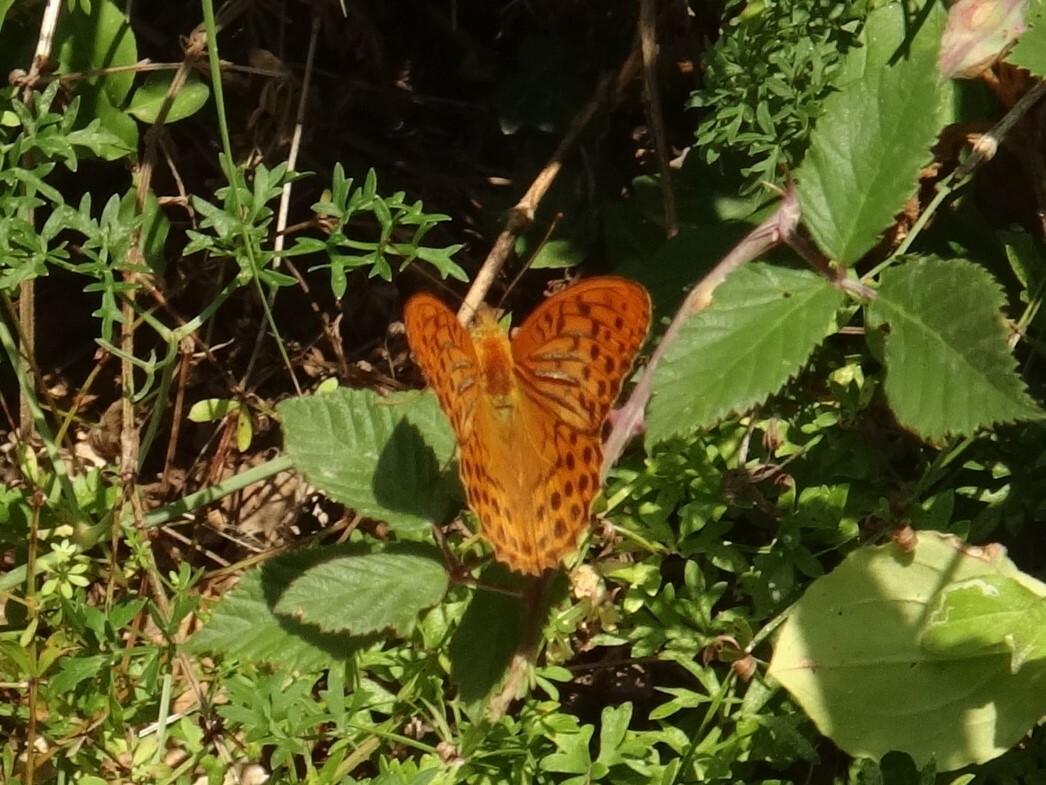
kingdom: Animalia
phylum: Arthropoda
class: Insecta
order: Lepidoptera
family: Nymphalidae
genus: Argynnis
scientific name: Argynnis paphia
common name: Silver-washed fritillary
